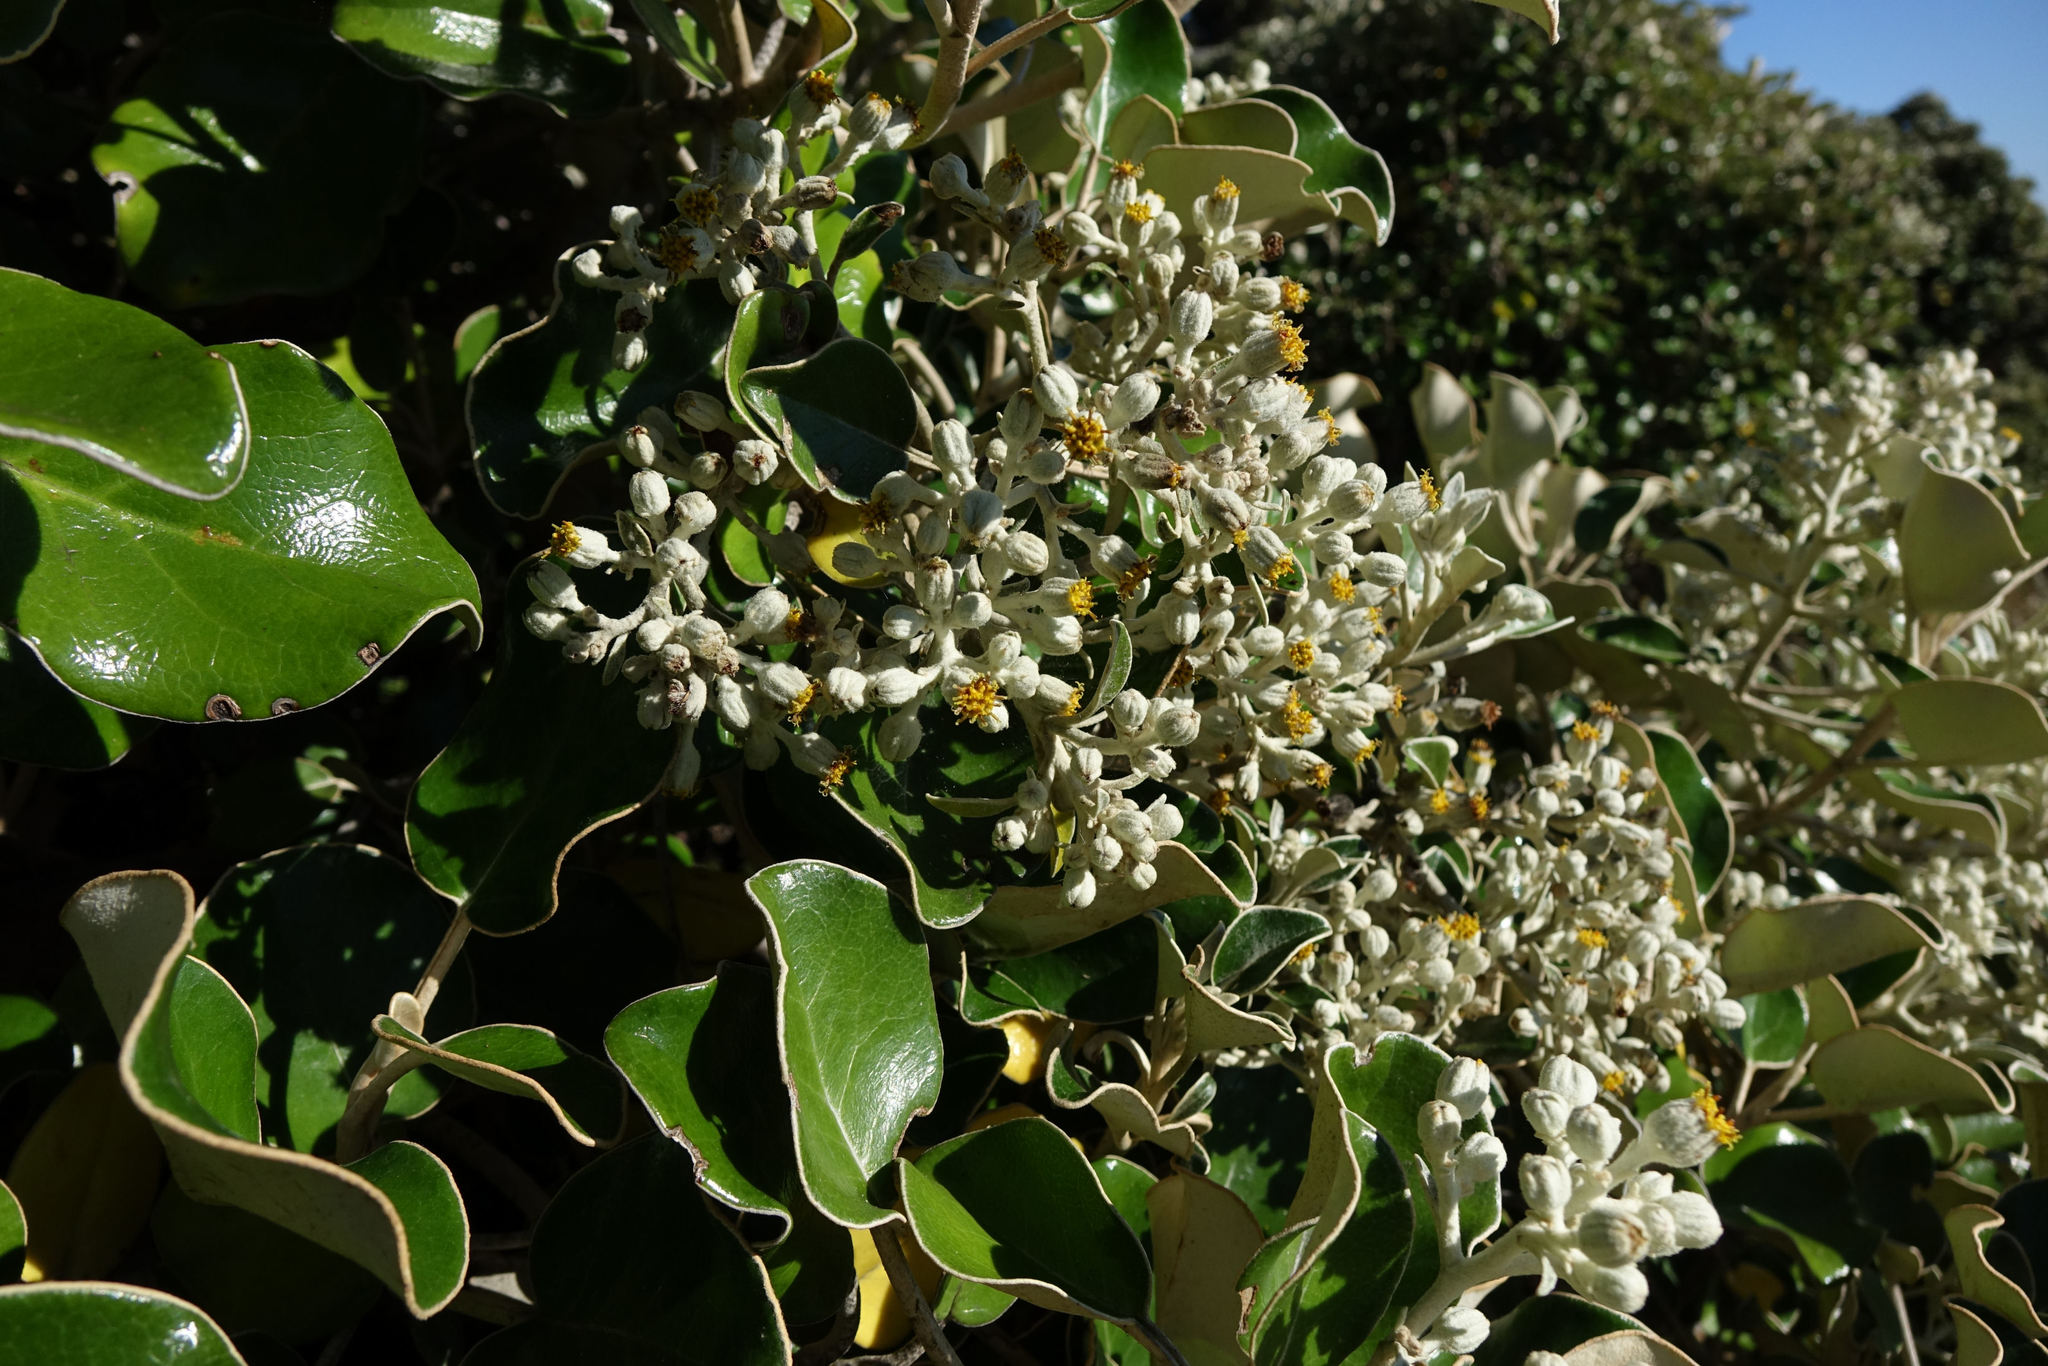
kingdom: Plantae
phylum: Tracheophyta
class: Magnoliopsida
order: Asterales
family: Asteraceae
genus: Brachyglottis
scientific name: Brachyglottis rotundifolia
